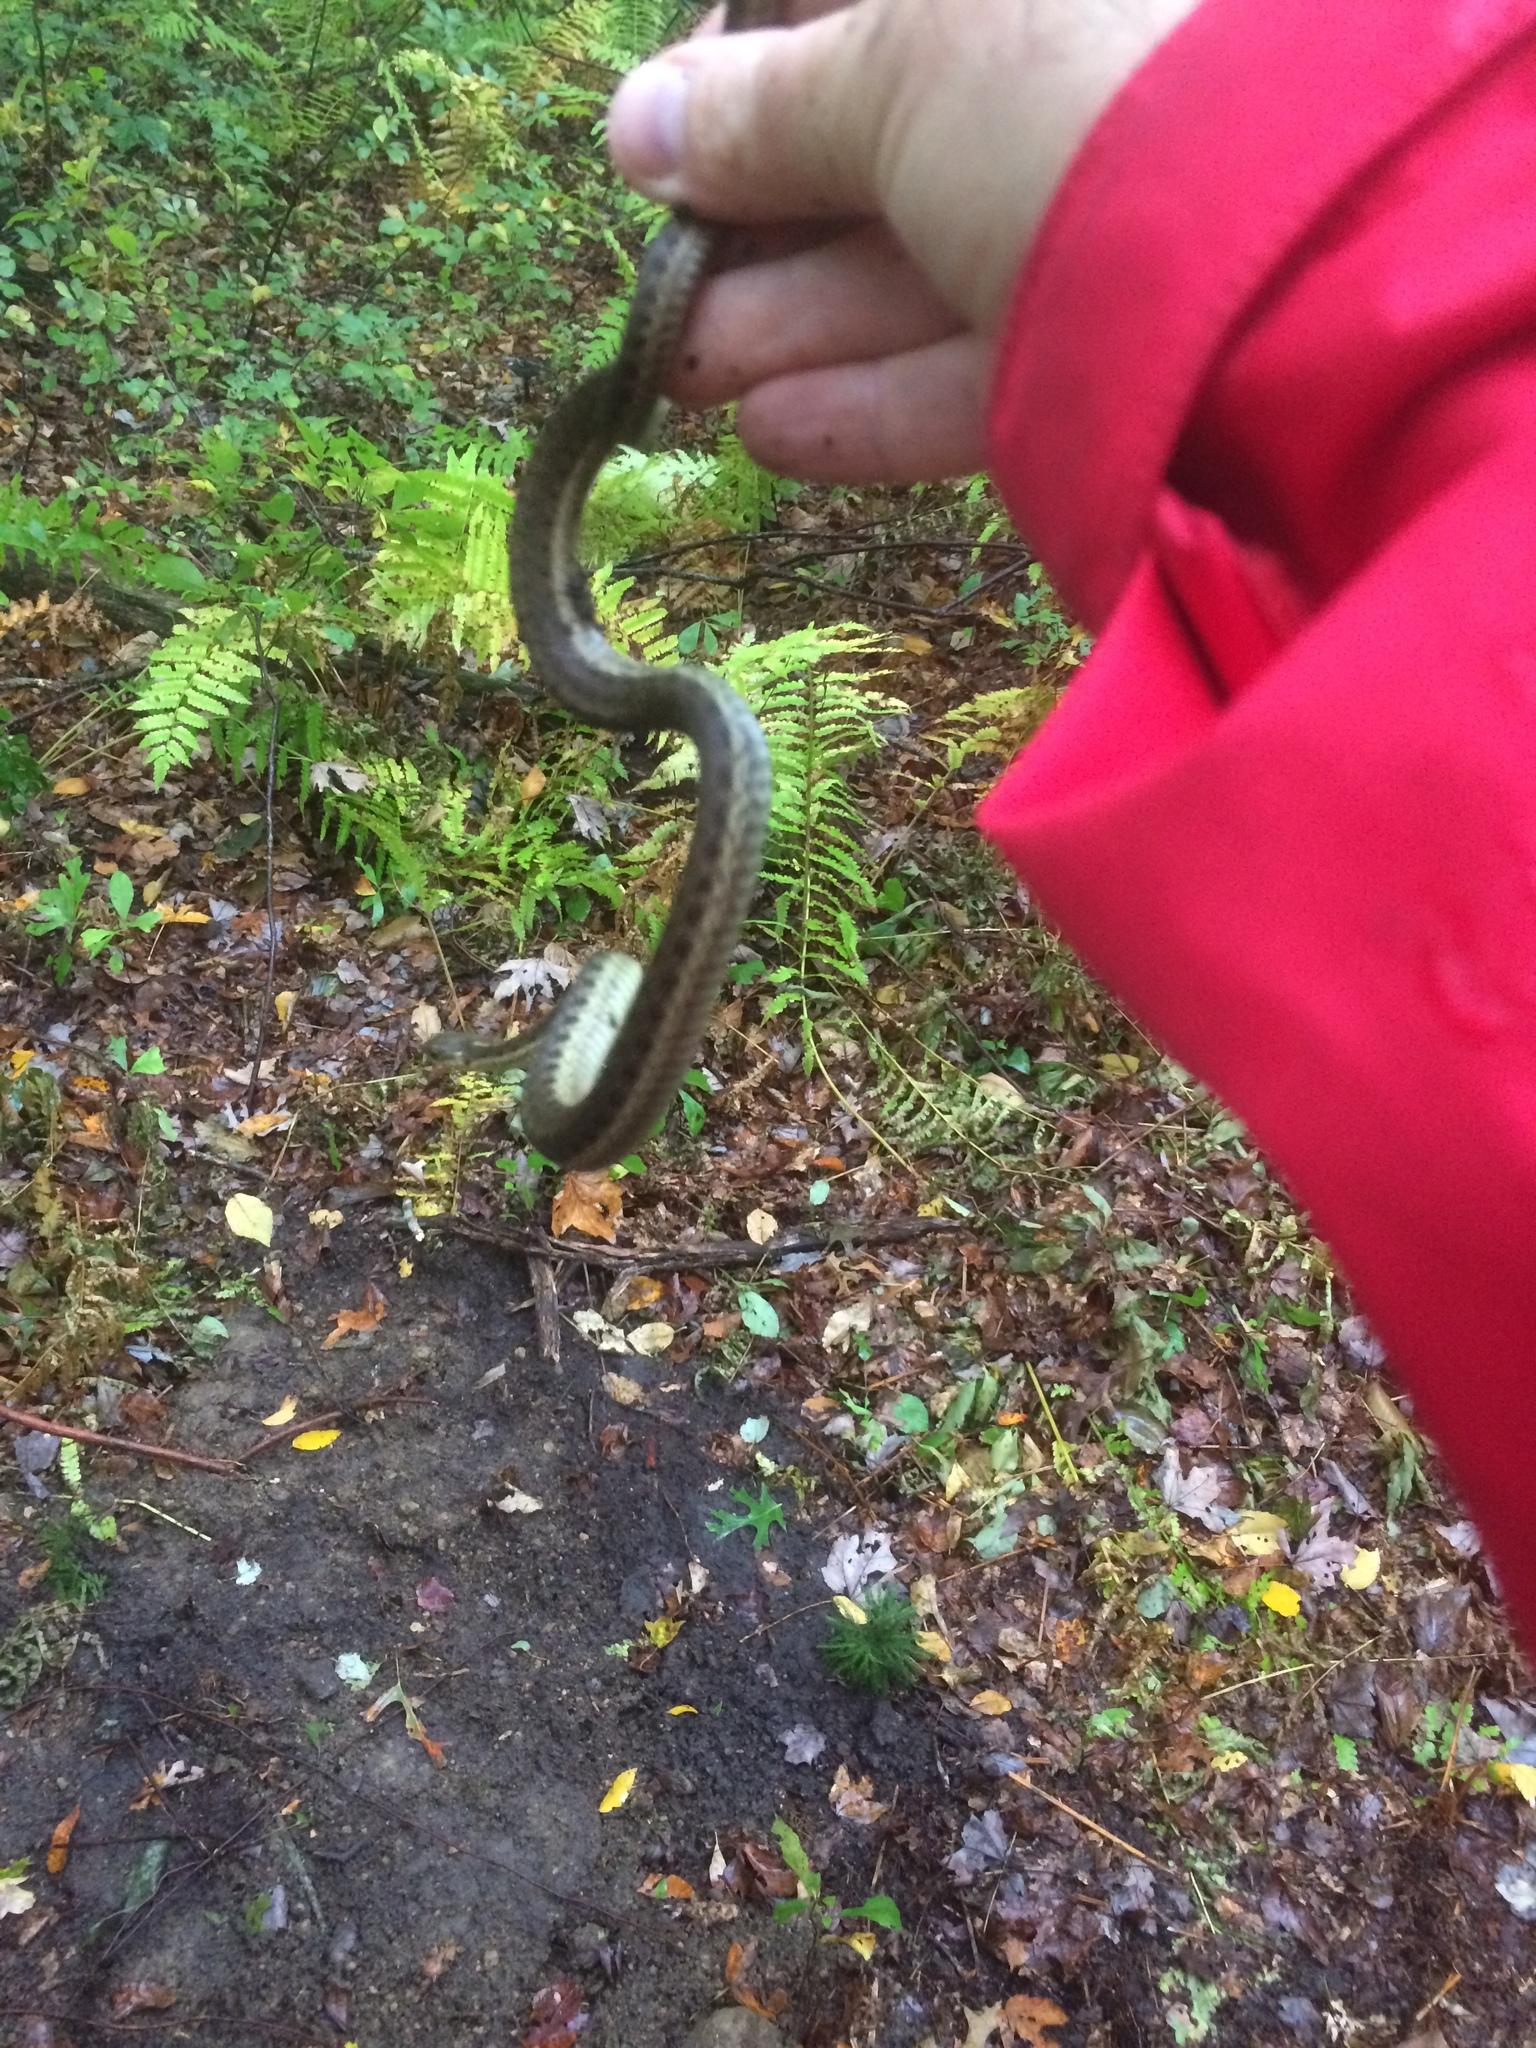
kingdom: Animalia
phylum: Chordata
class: Squamata
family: Colubridae
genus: Thamnophis
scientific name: Thamnophis sirtalis
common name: Common garter snake
